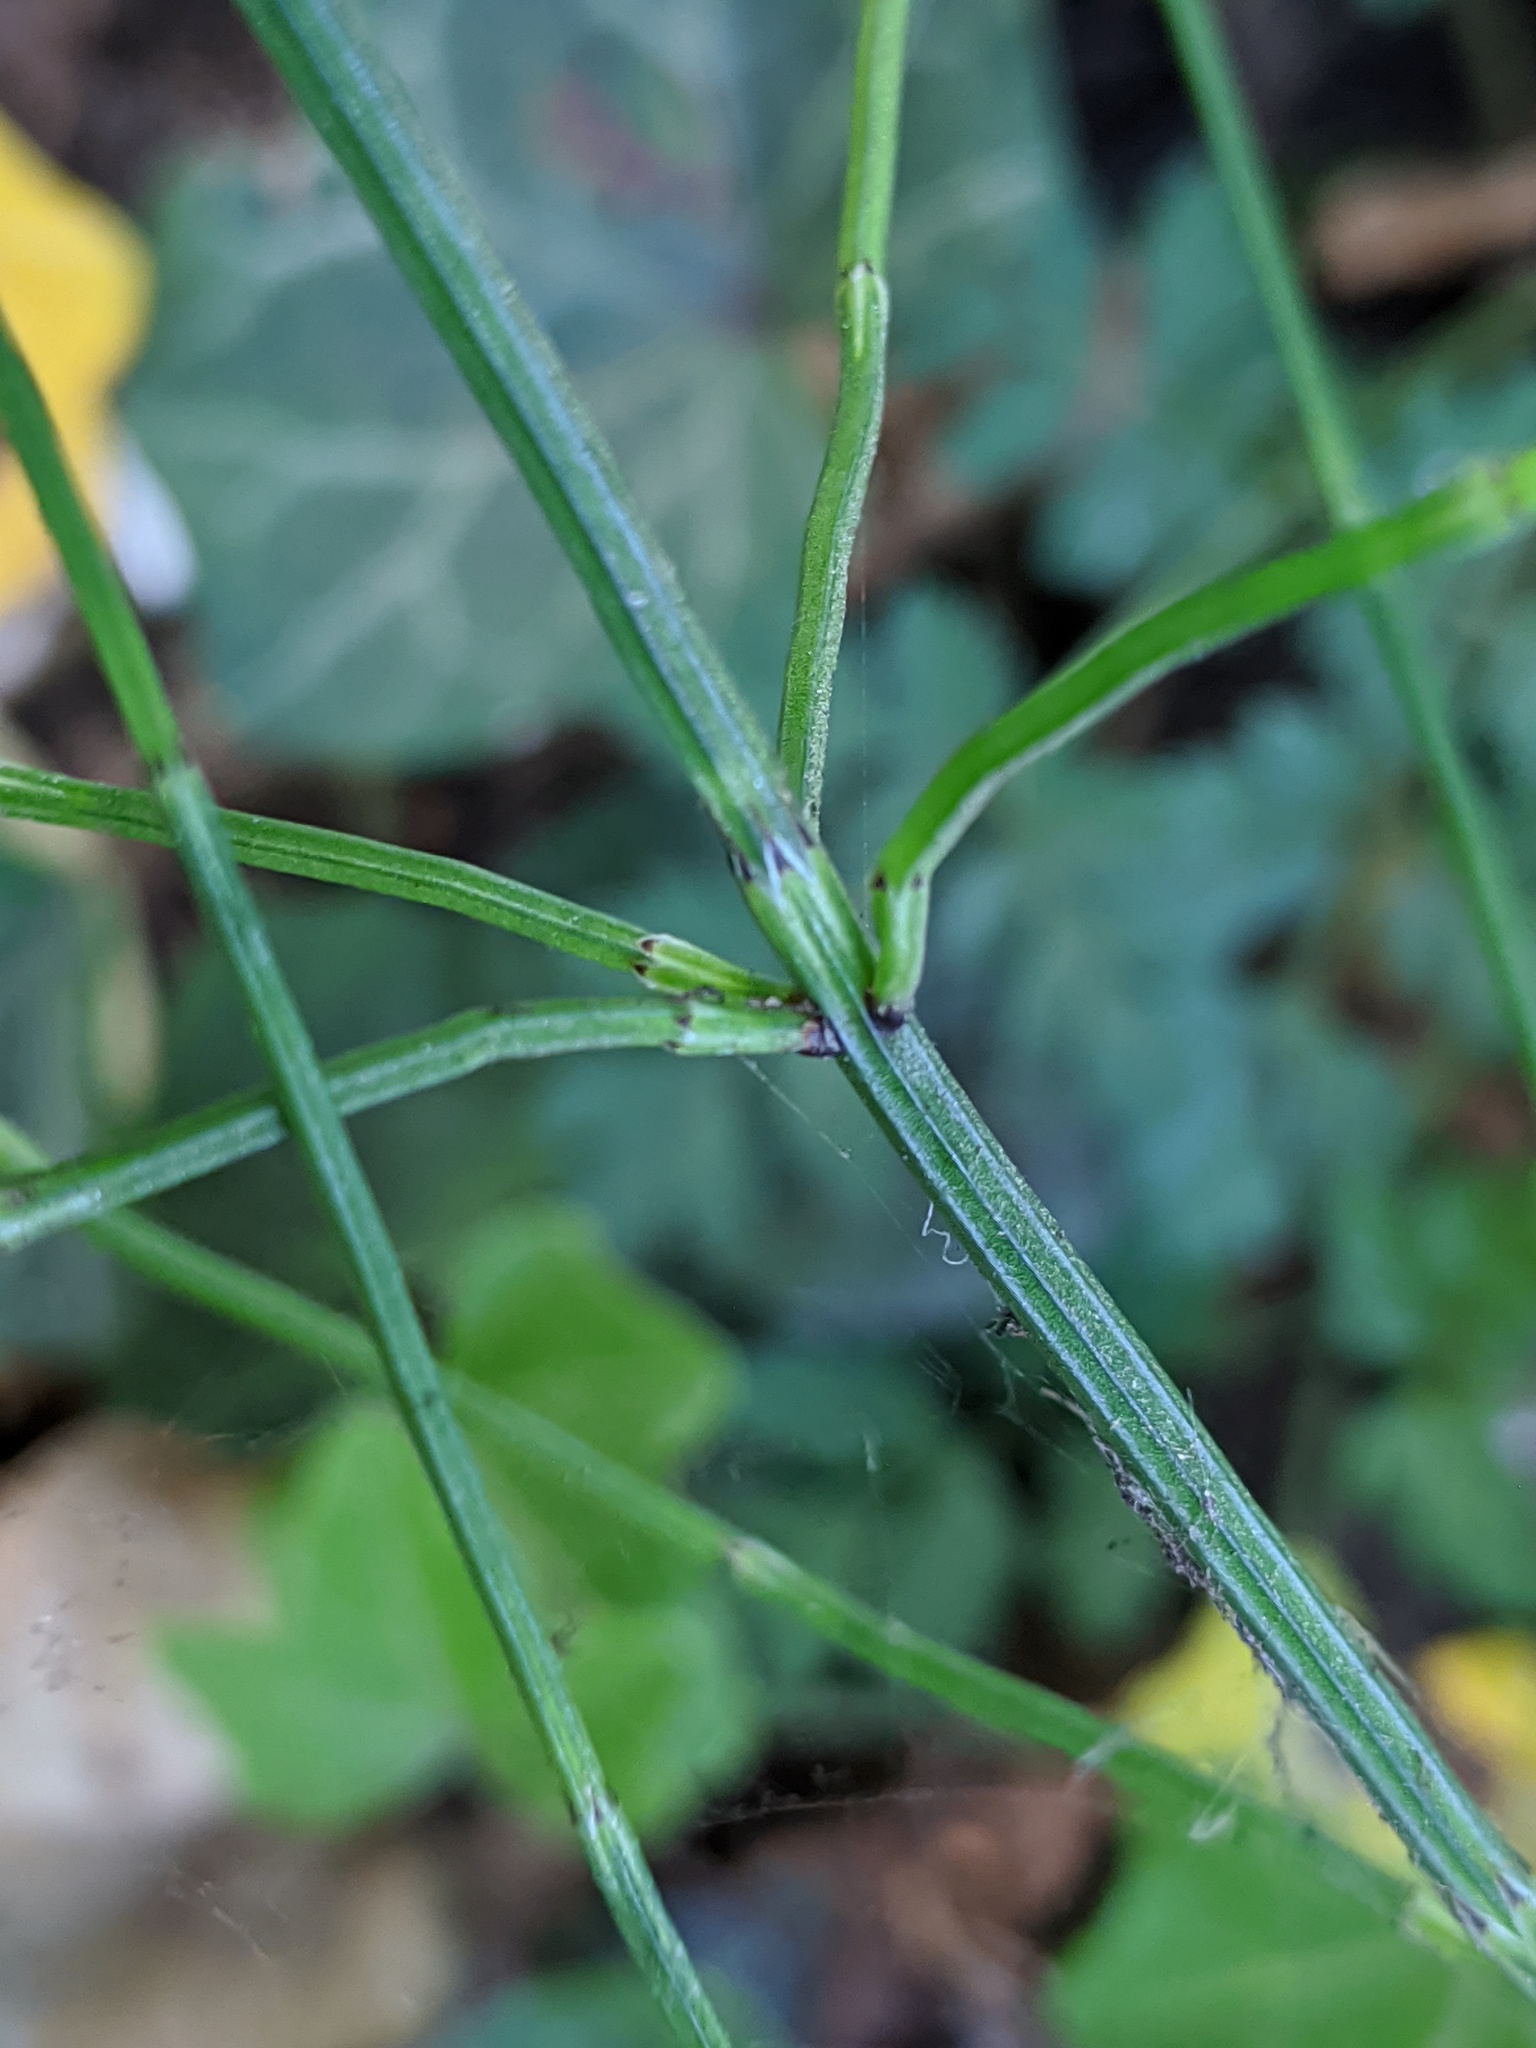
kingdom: Plantae
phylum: Tracheophyta
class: Polypodiopsida
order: Equisetales
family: Equisetaceae
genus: Equisetum
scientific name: Equisetum palustre
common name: Marsh horsetail
